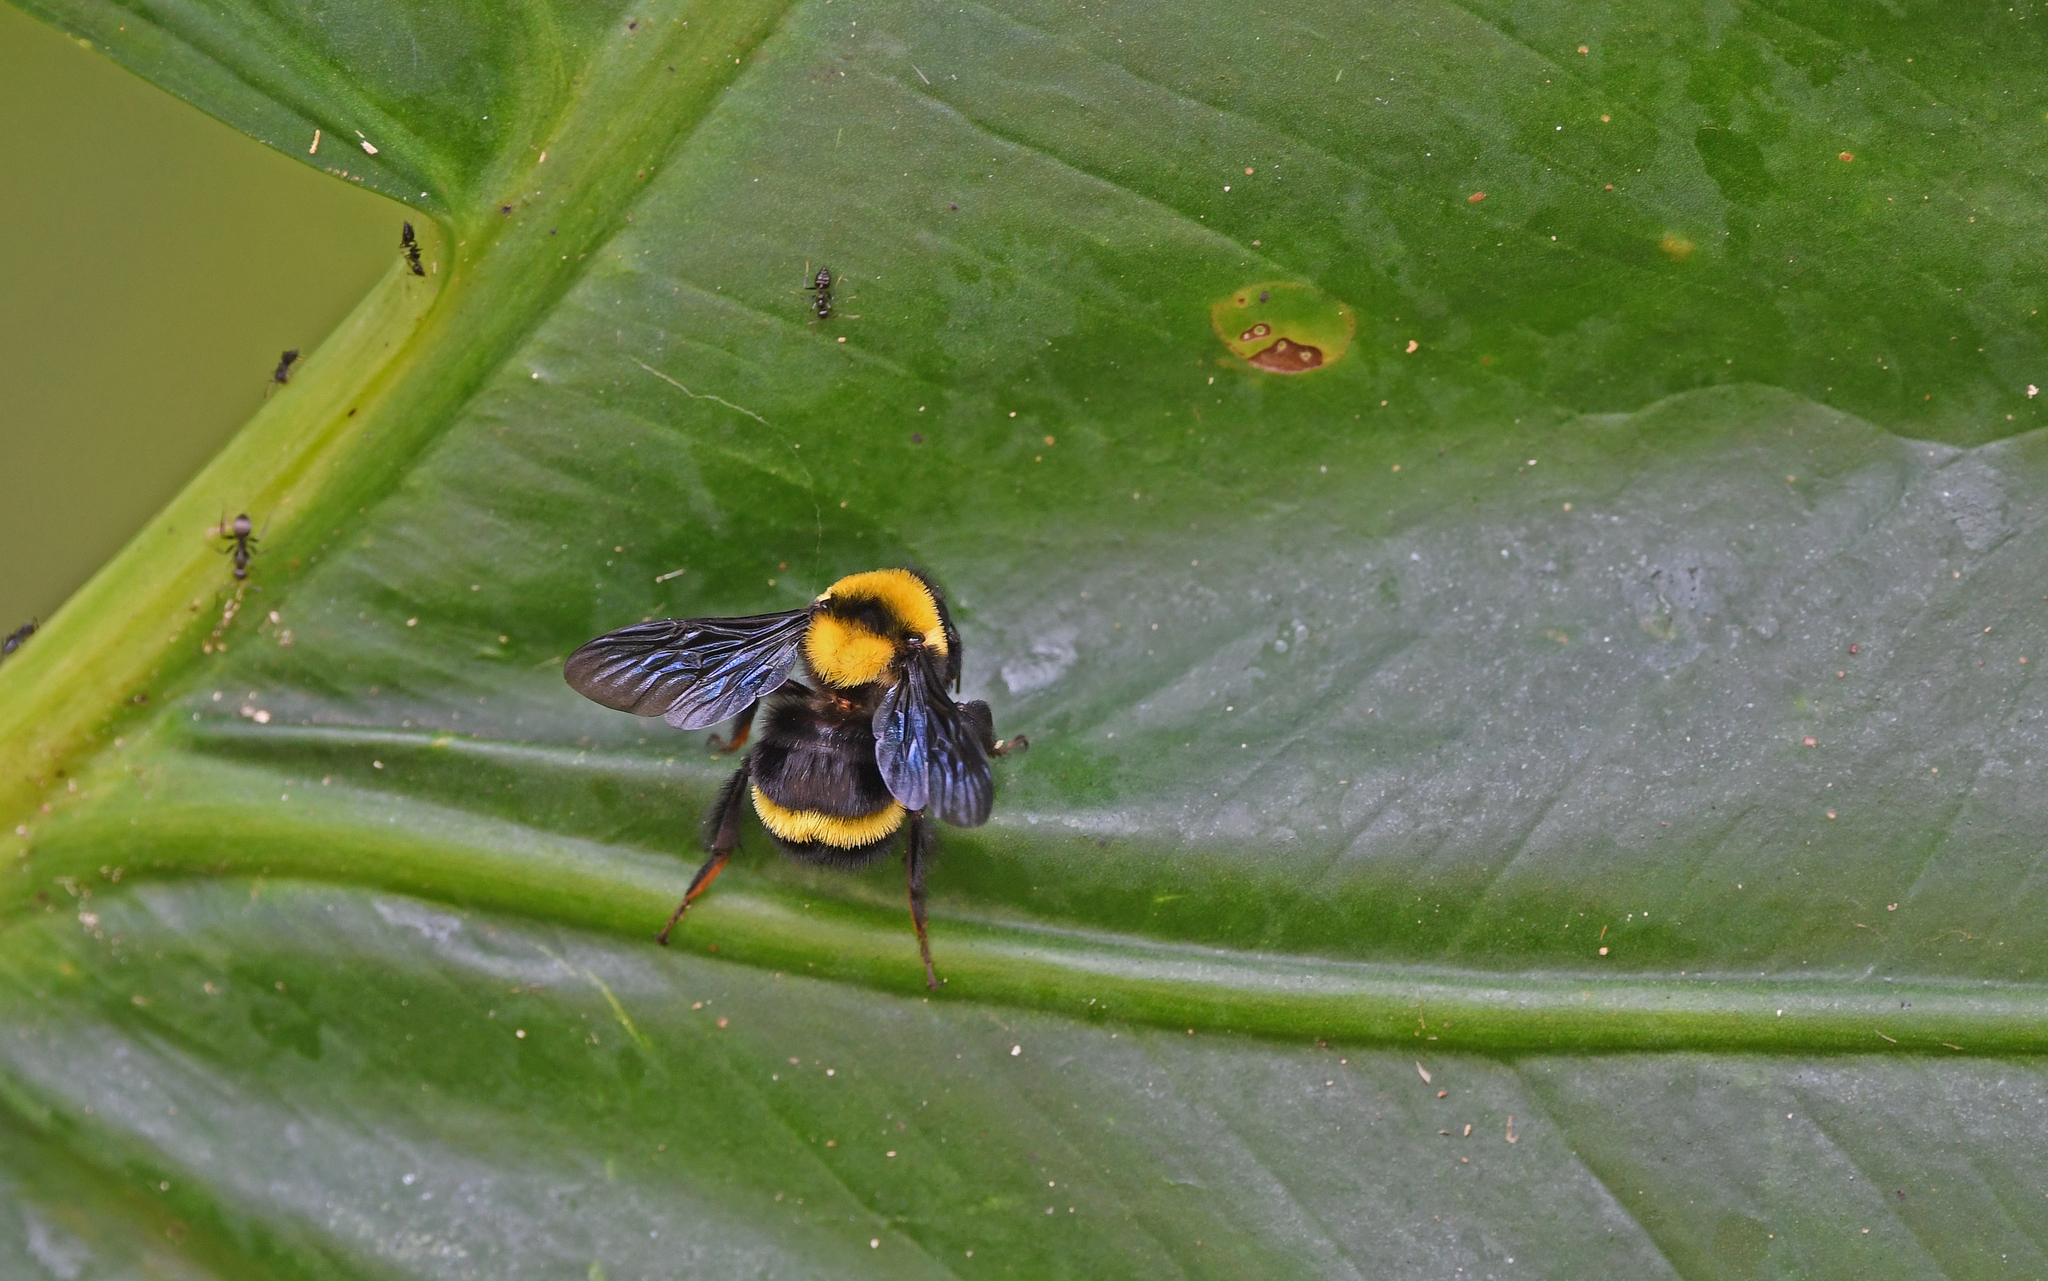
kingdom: Animalia
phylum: Arthropoda
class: Insecta
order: Hymenoptera
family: Apidae
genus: Bombus
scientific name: Bombus transversalis
